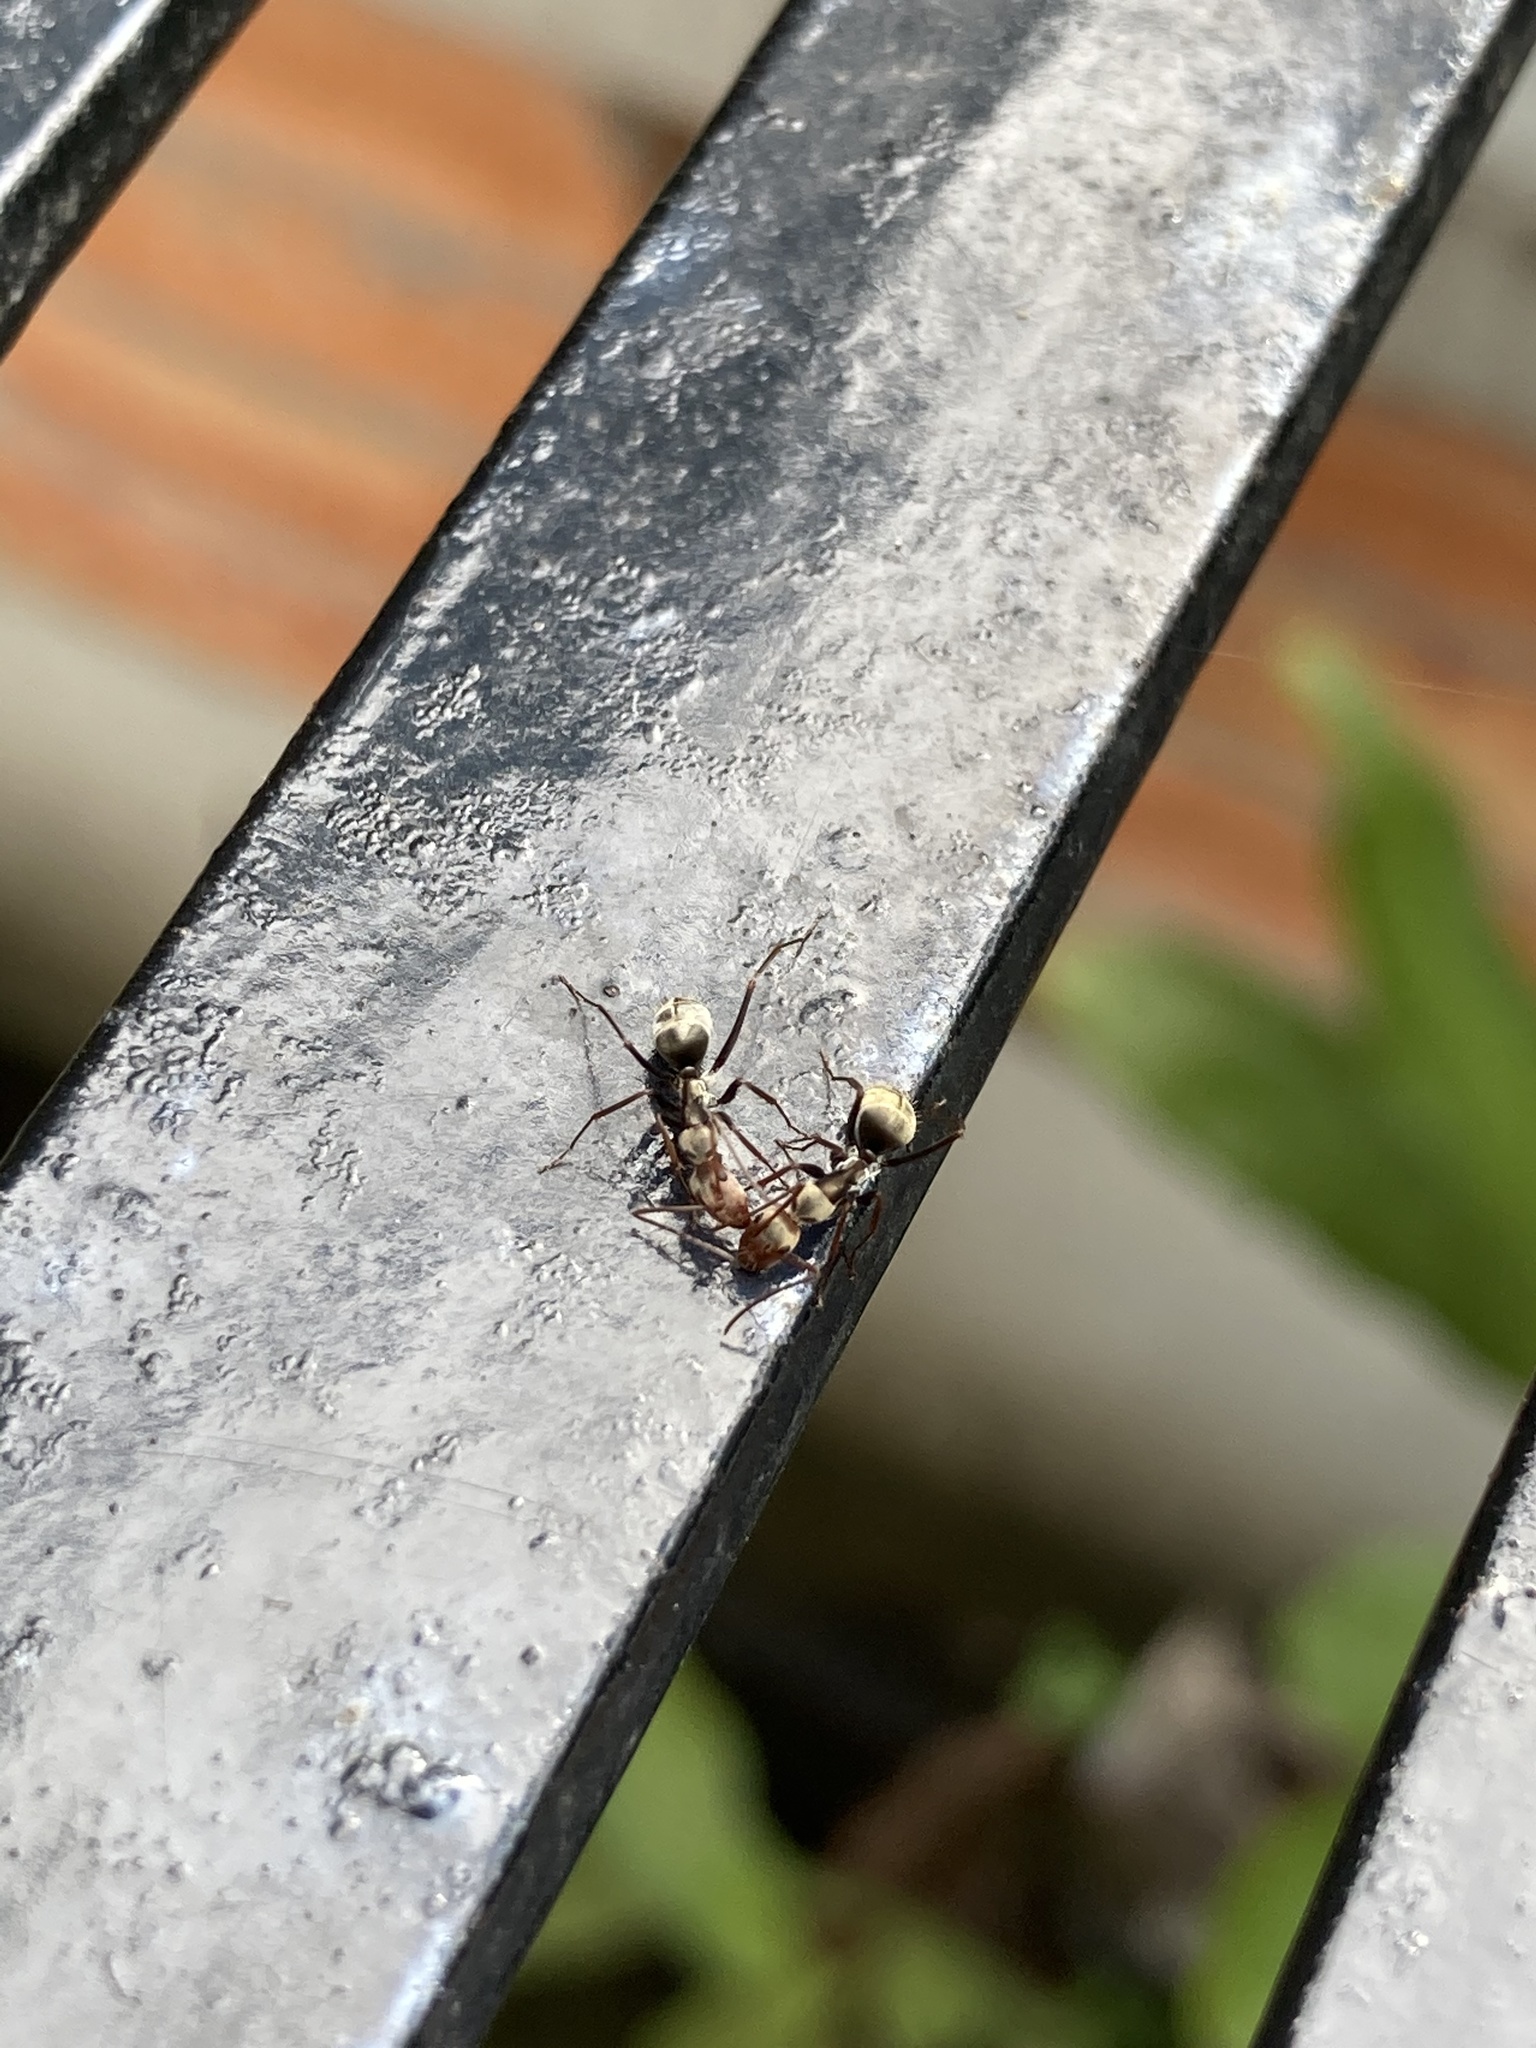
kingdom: Animalia
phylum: Arthropoda
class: Insecta
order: Hymenoptera
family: Formicidae
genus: Camponotus
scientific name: Camponotus rufoglaucus
